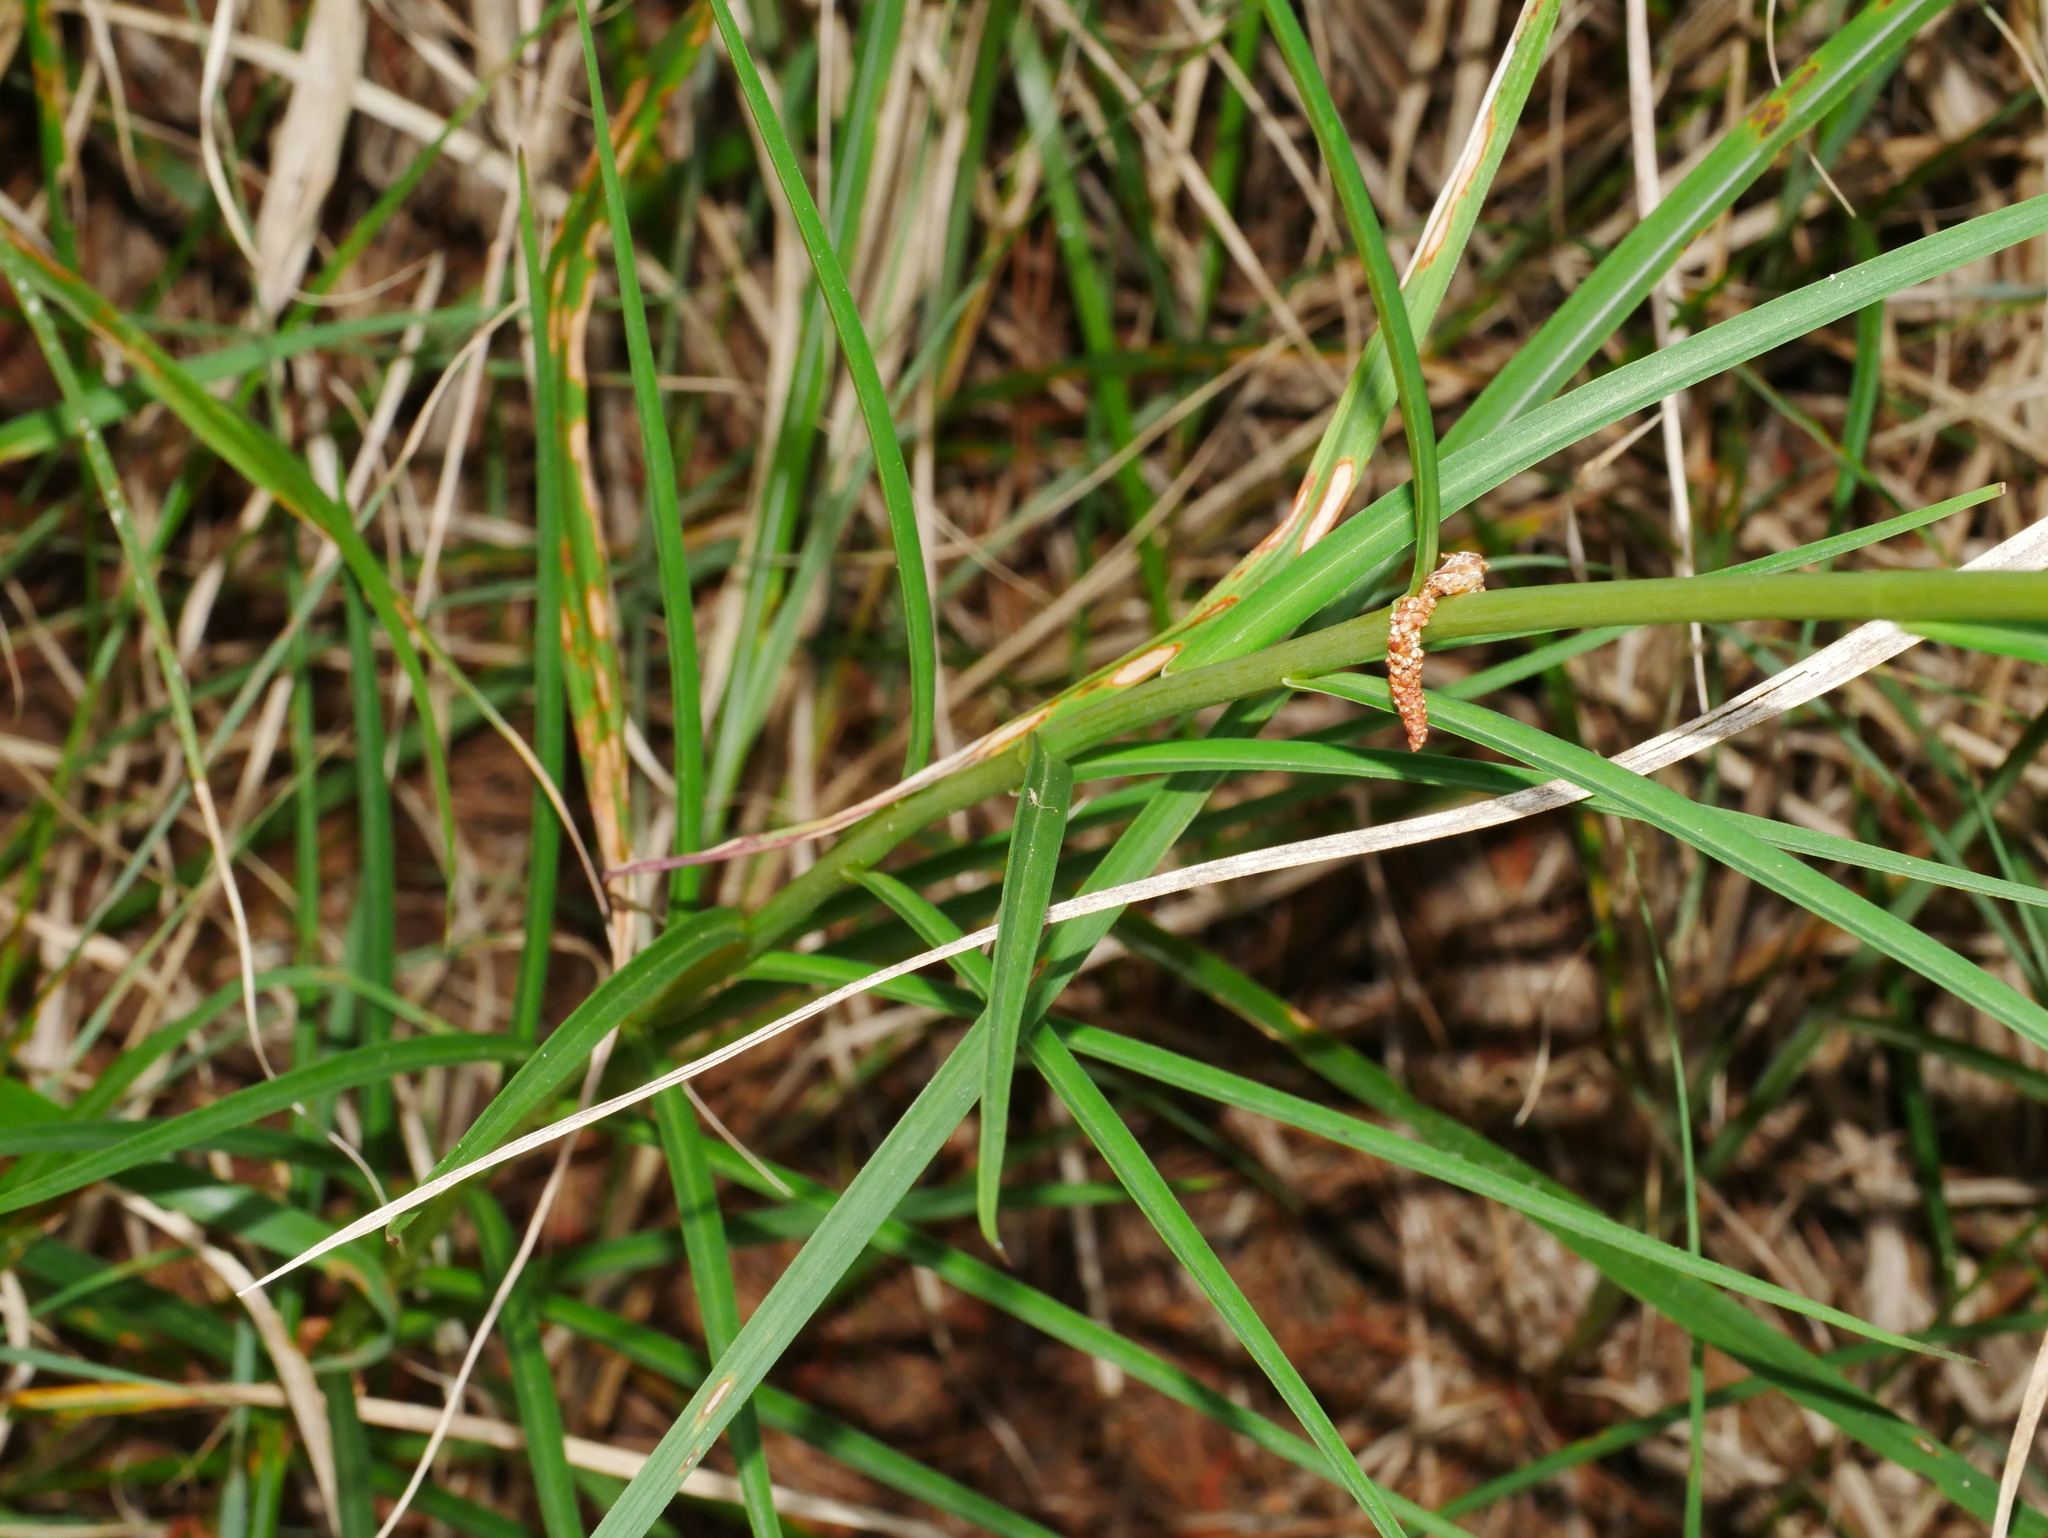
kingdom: Plantae
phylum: Tracheophyta
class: Liliopsida
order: Liliales
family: Liliaceae
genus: Lilium
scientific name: Lilium formosanum
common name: Formosa lily
